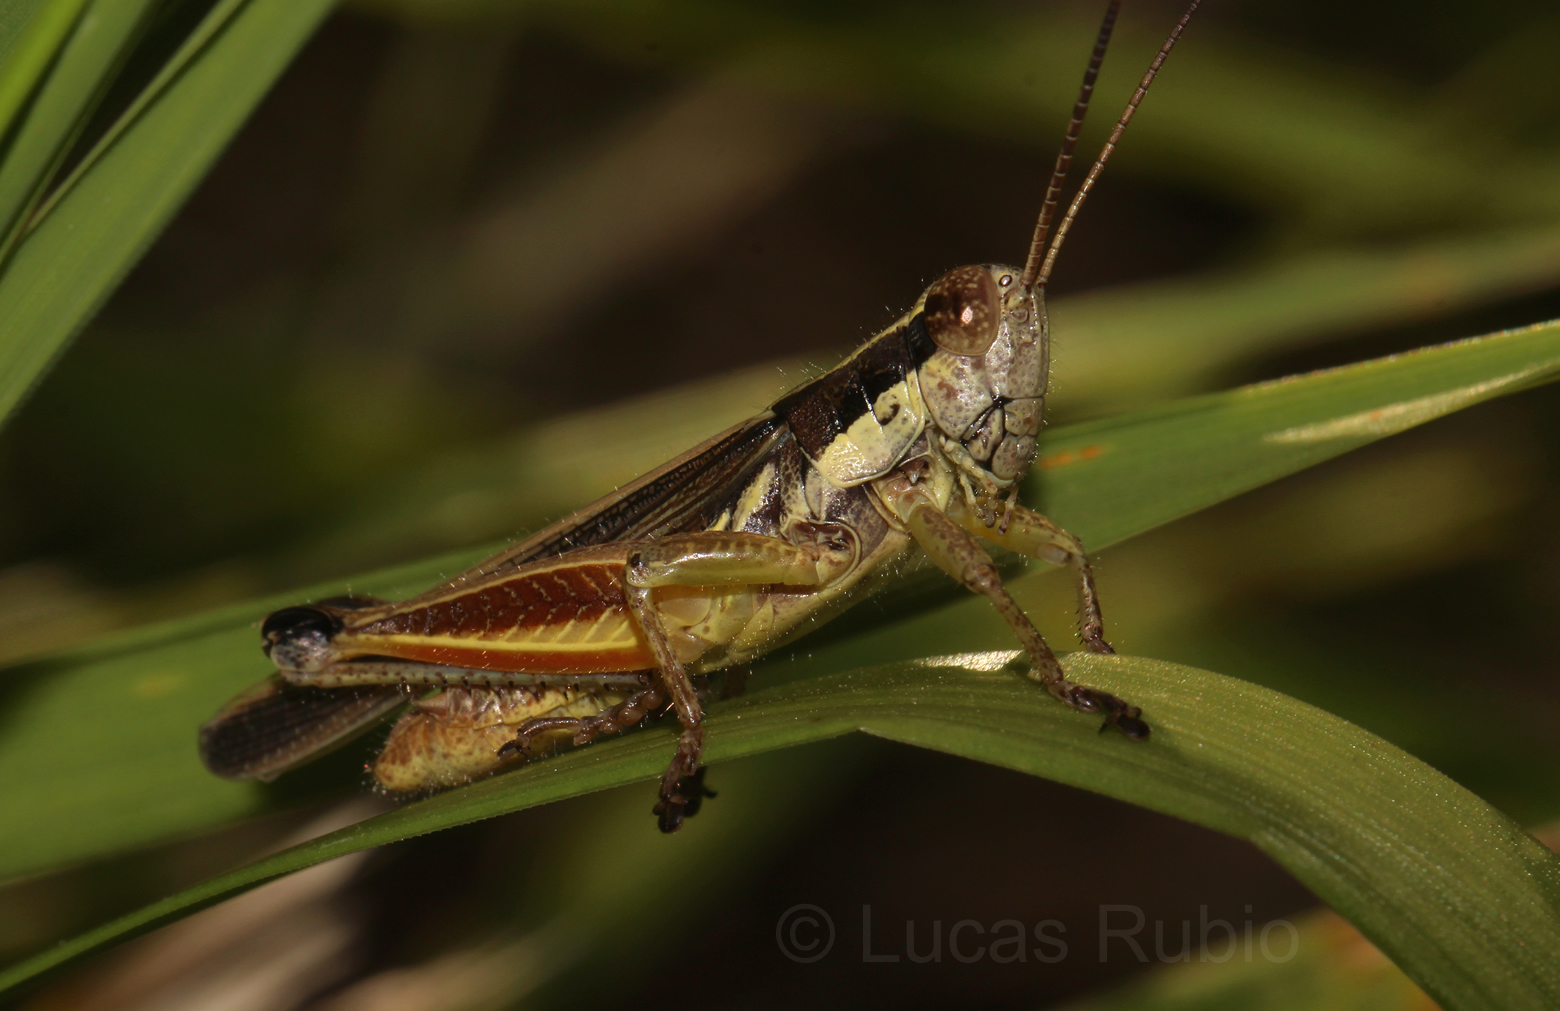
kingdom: Animalia
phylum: Arthropoda
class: Insecta
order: Orthoptera
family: Acrididae
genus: Dichroplus
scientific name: Dichroplus elongatus
